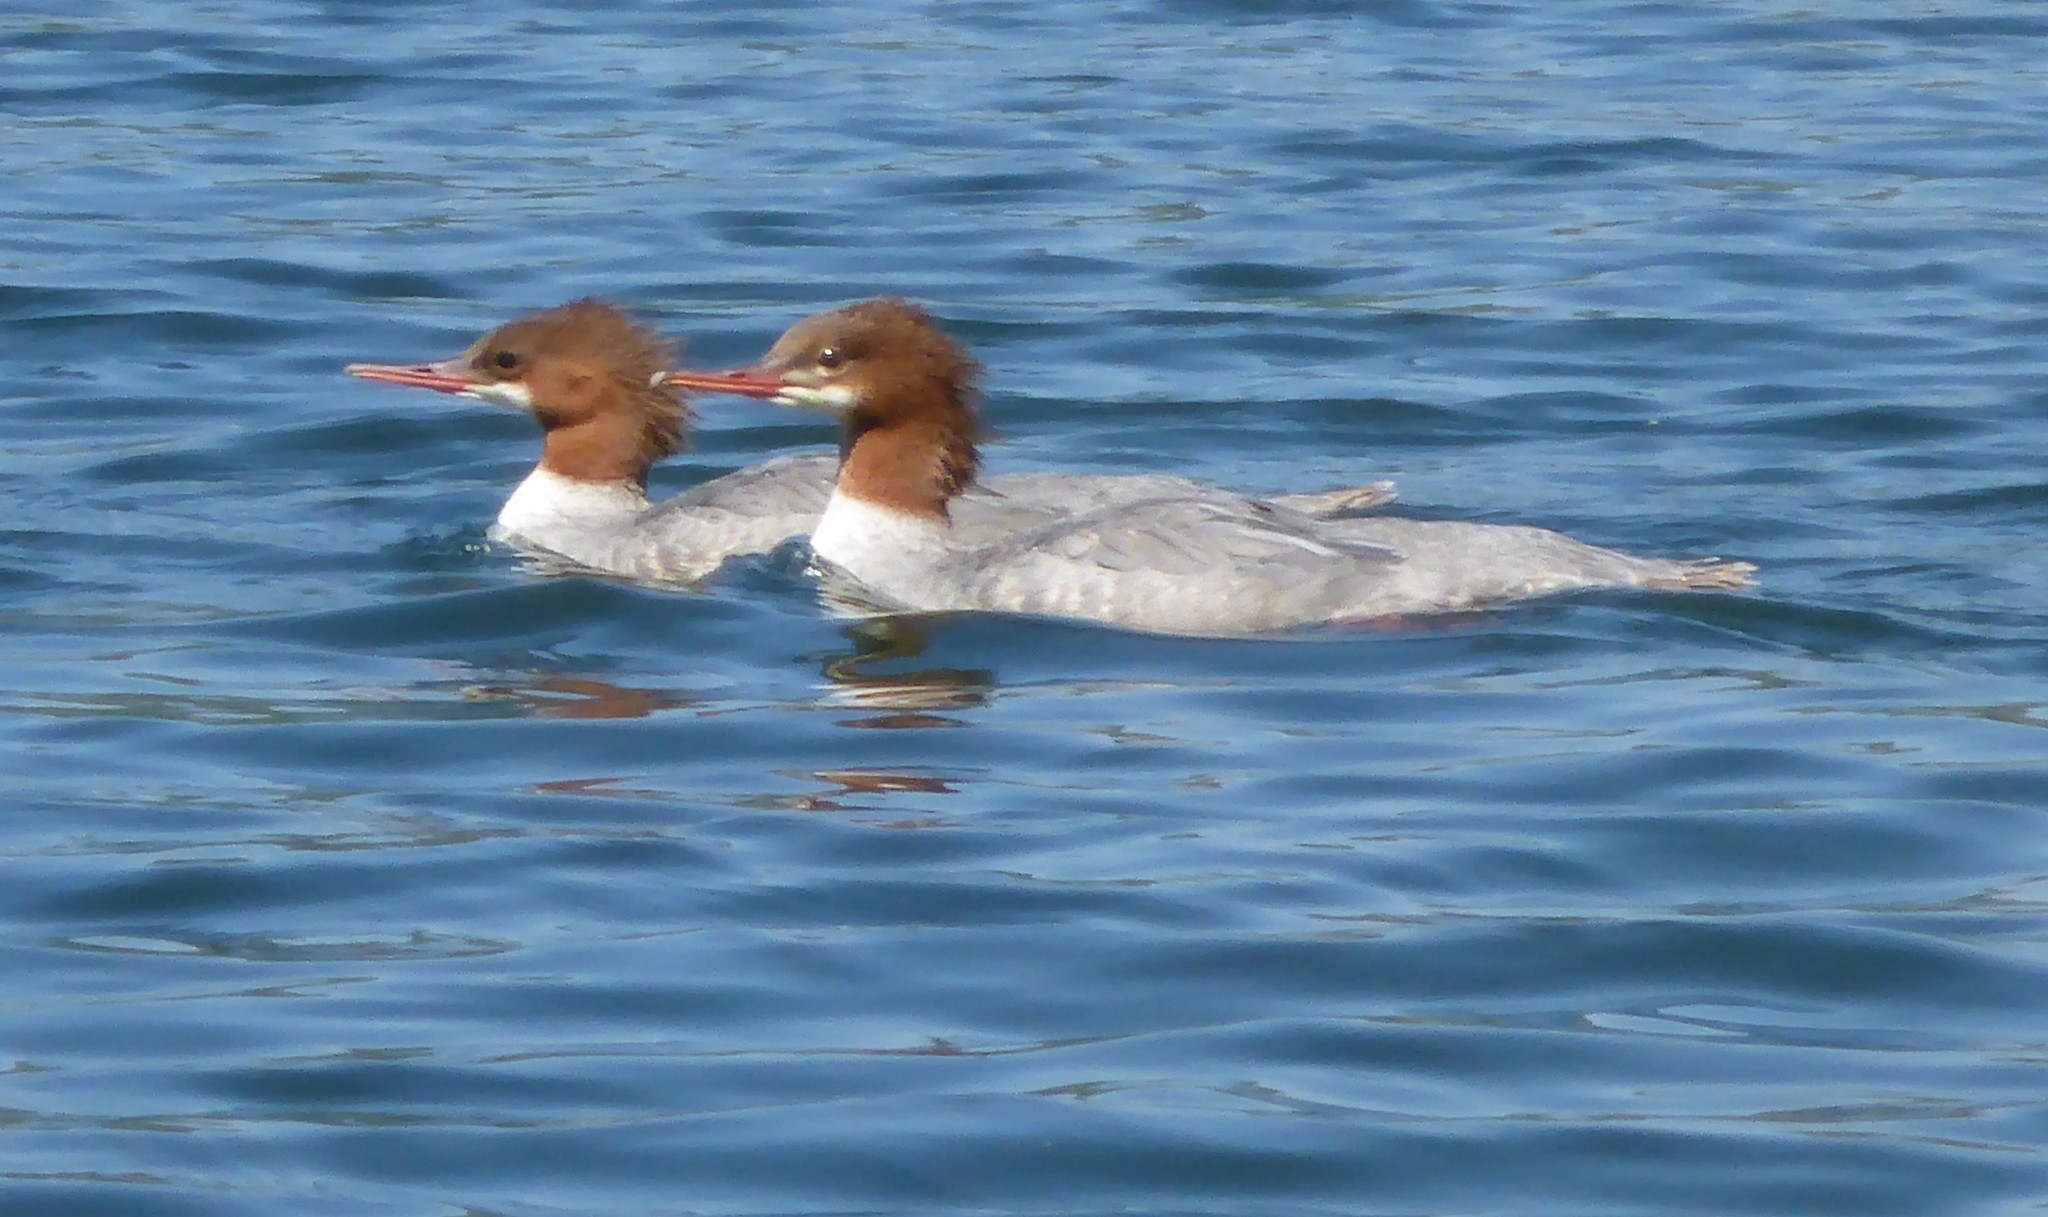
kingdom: Animalia
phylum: Chordata
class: Aves
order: Anseriformes
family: Anatidae
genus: Mergus
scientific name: Mergus merganser
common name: Common merganser
